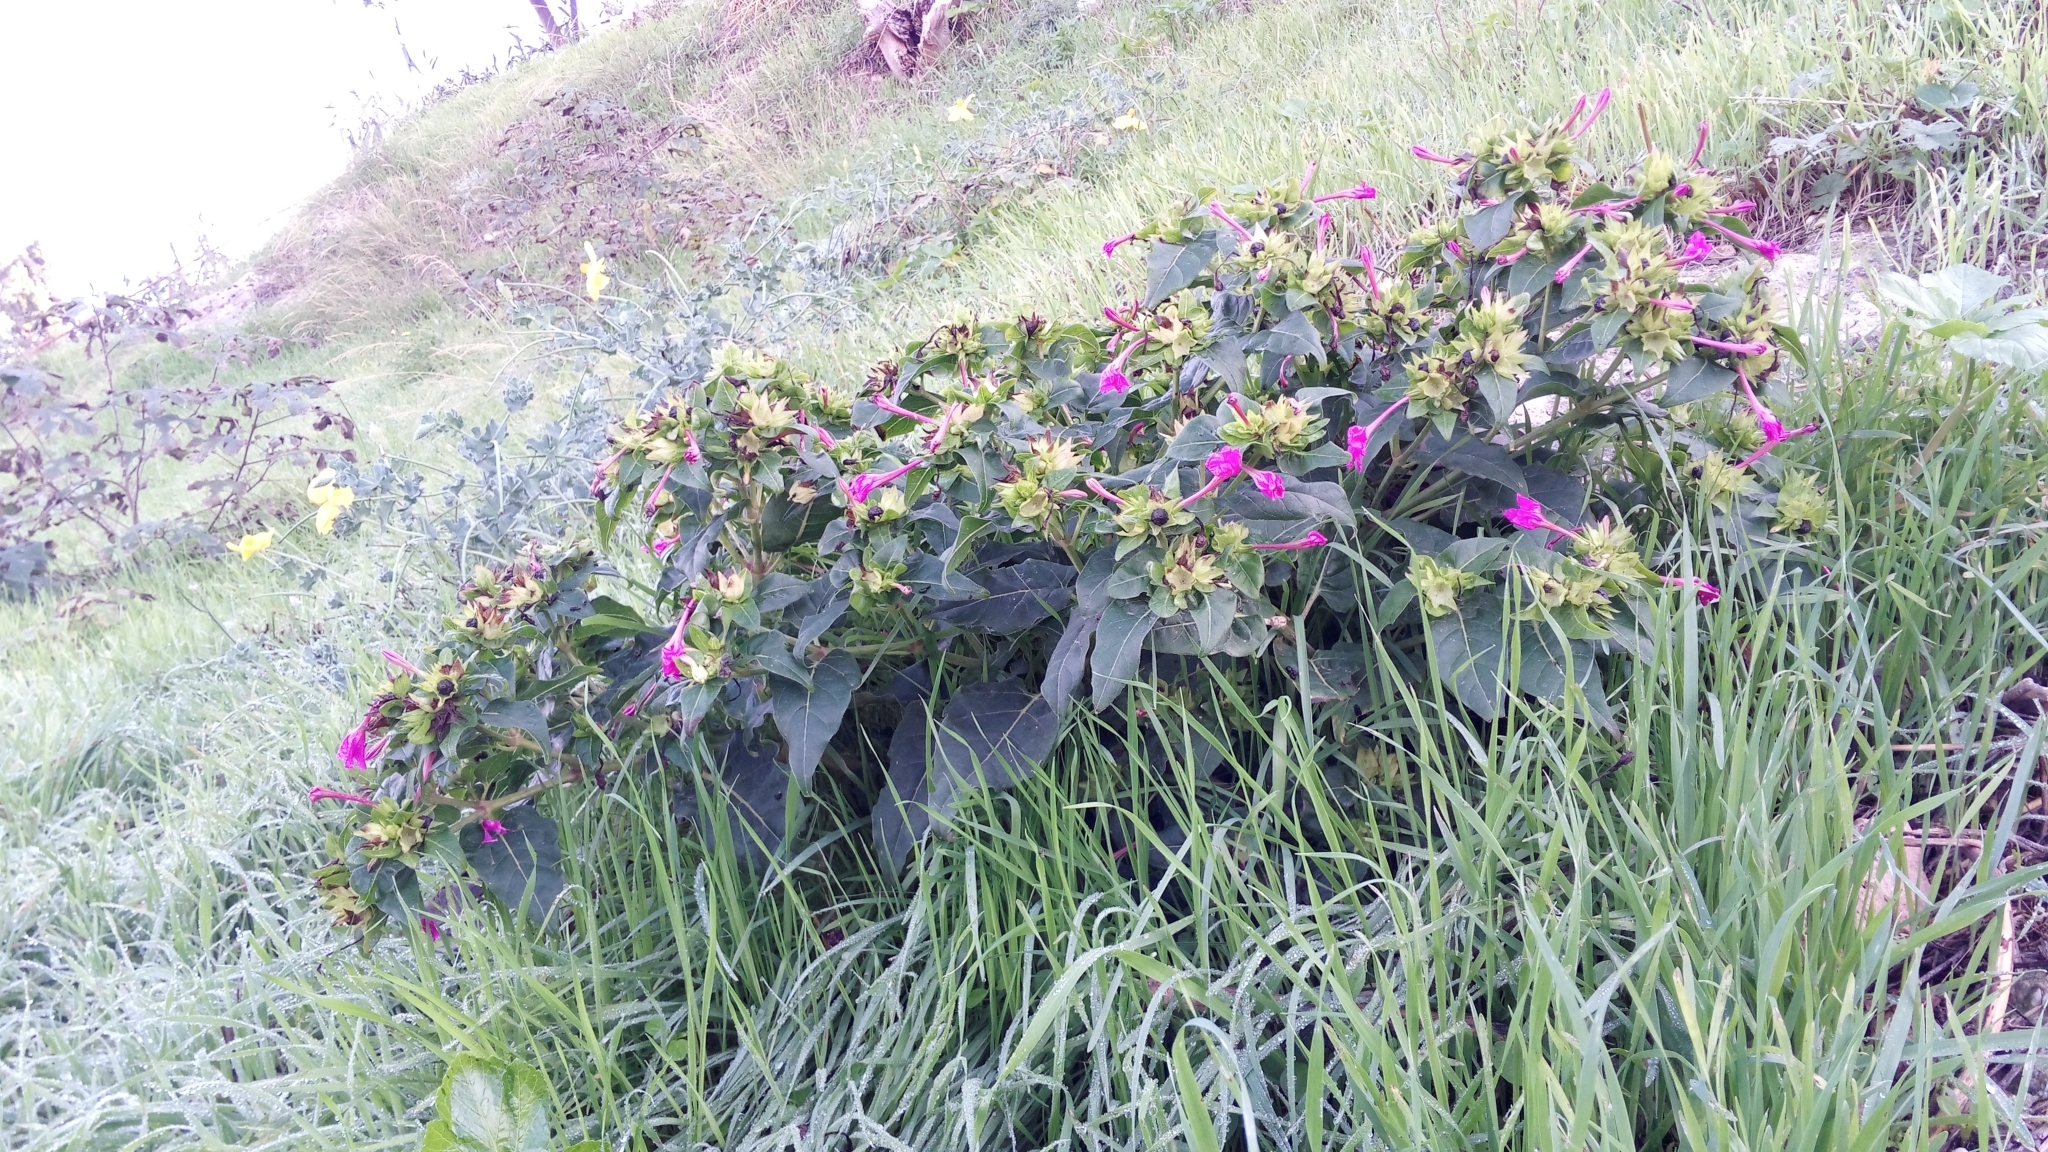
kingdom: Plantae
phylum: Tracheophyta
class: Magnoliopsida
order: Caryophyllales
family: Nyctaginaceae
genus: Mirabilis
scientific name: Mirabilis jalapa
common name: Marvel-of-peru
